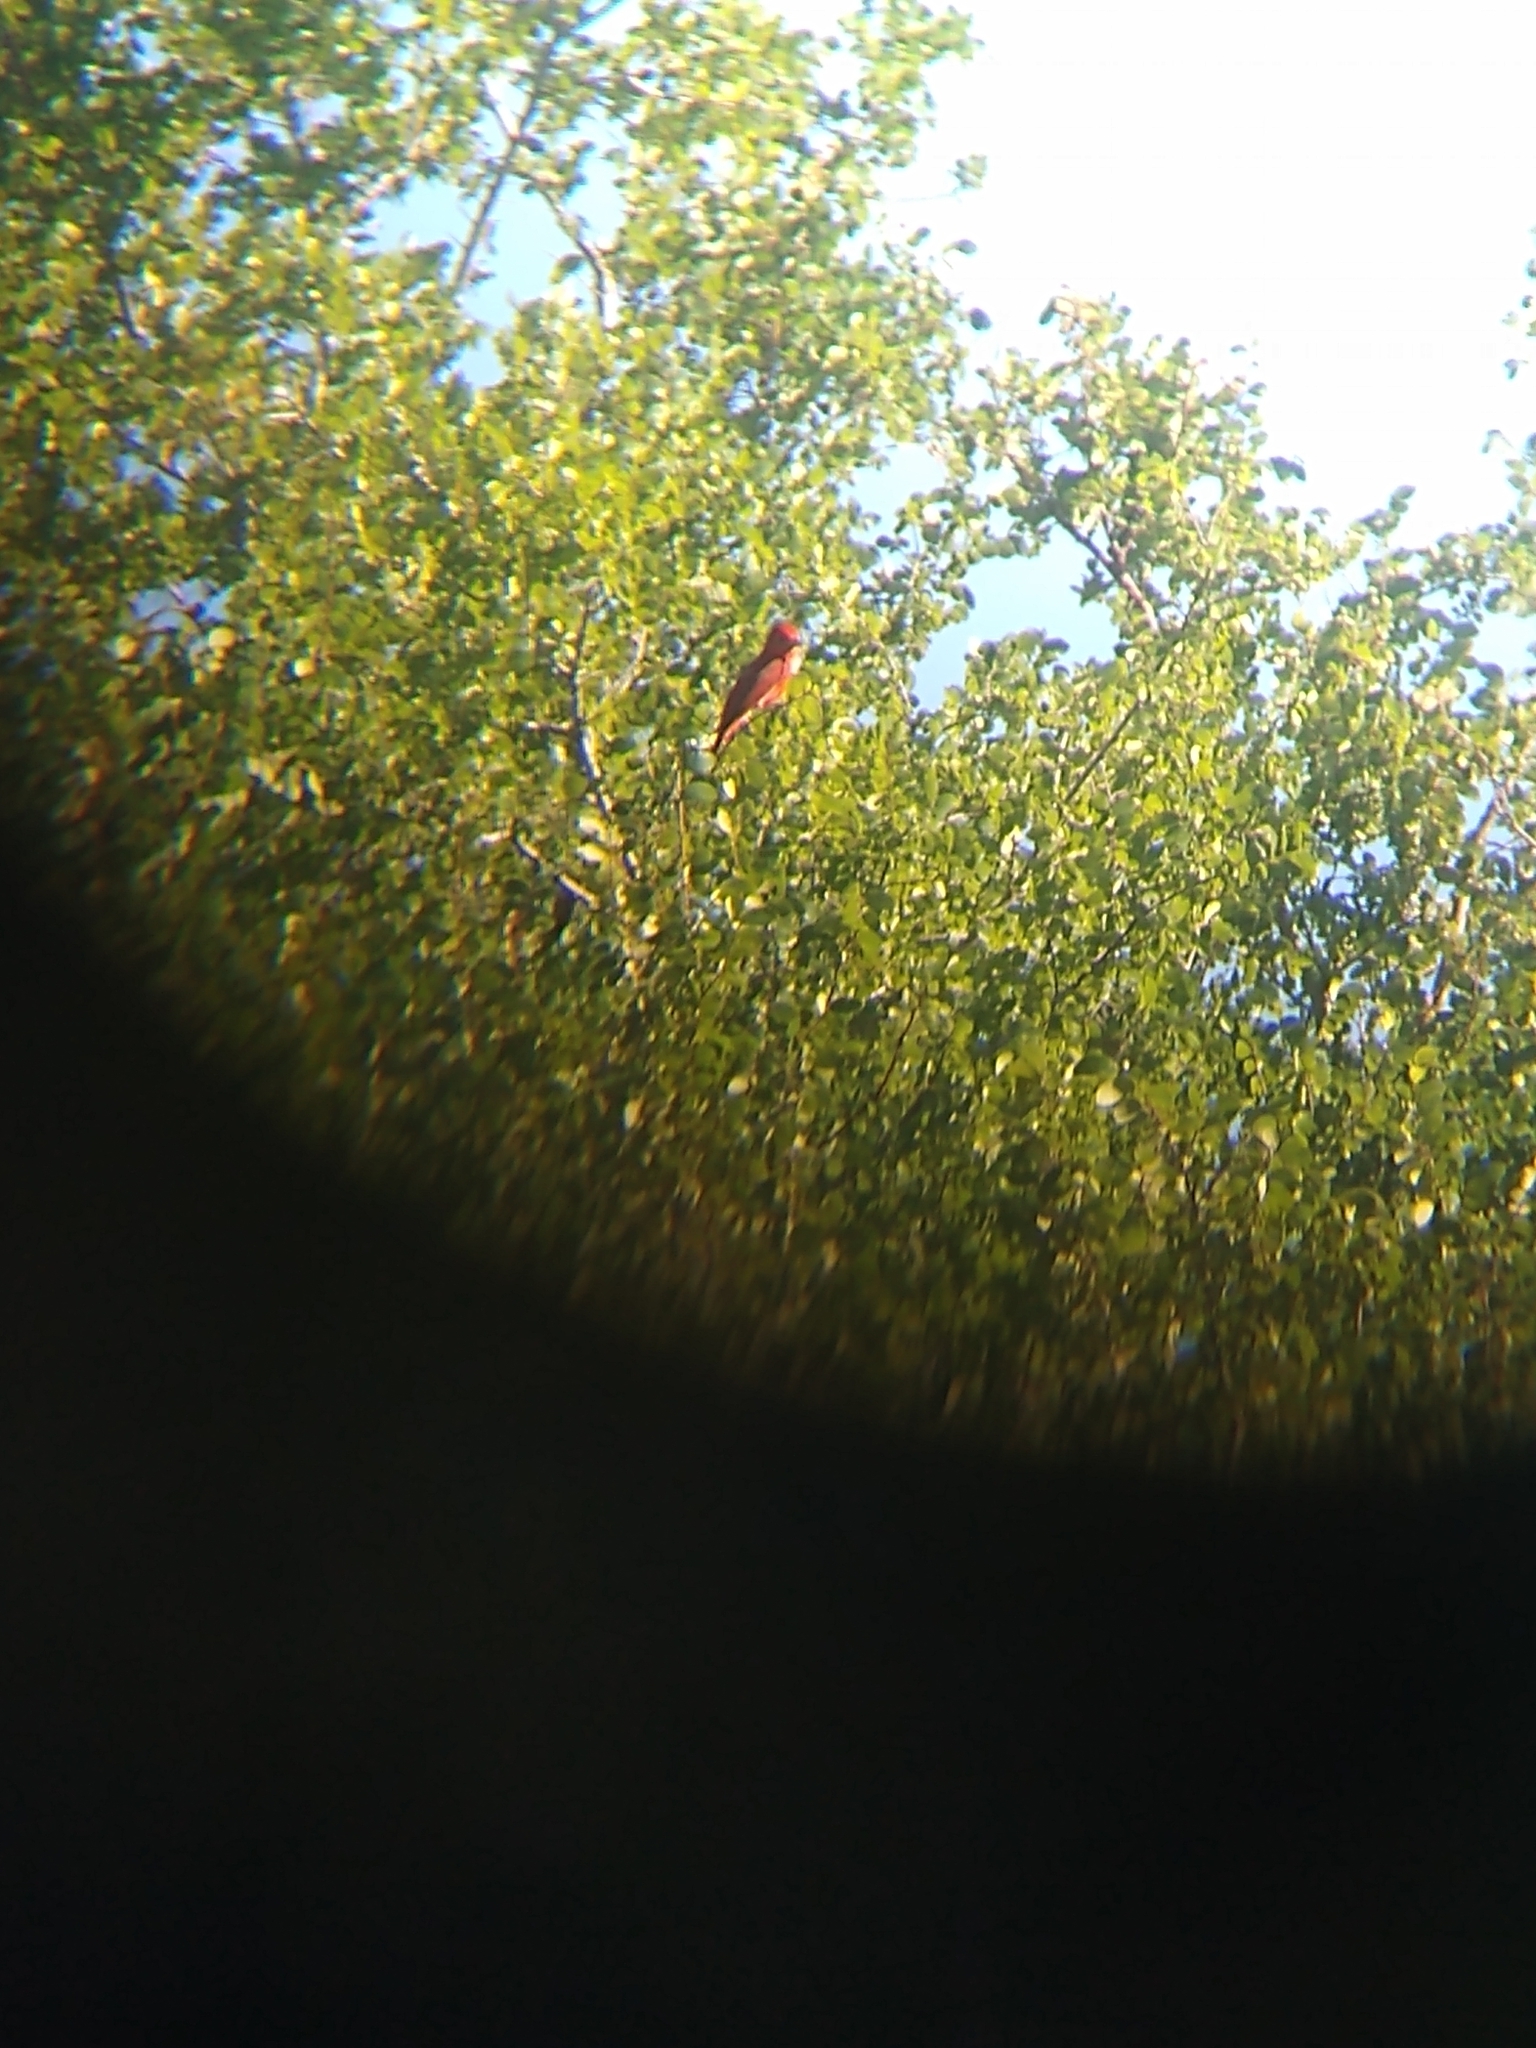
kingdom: Animalia
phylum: Chordata
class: Aves
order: Passeriformes
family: Cardinalidae
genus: Piranga
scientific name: Piranga rubra
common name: Summer tanager
